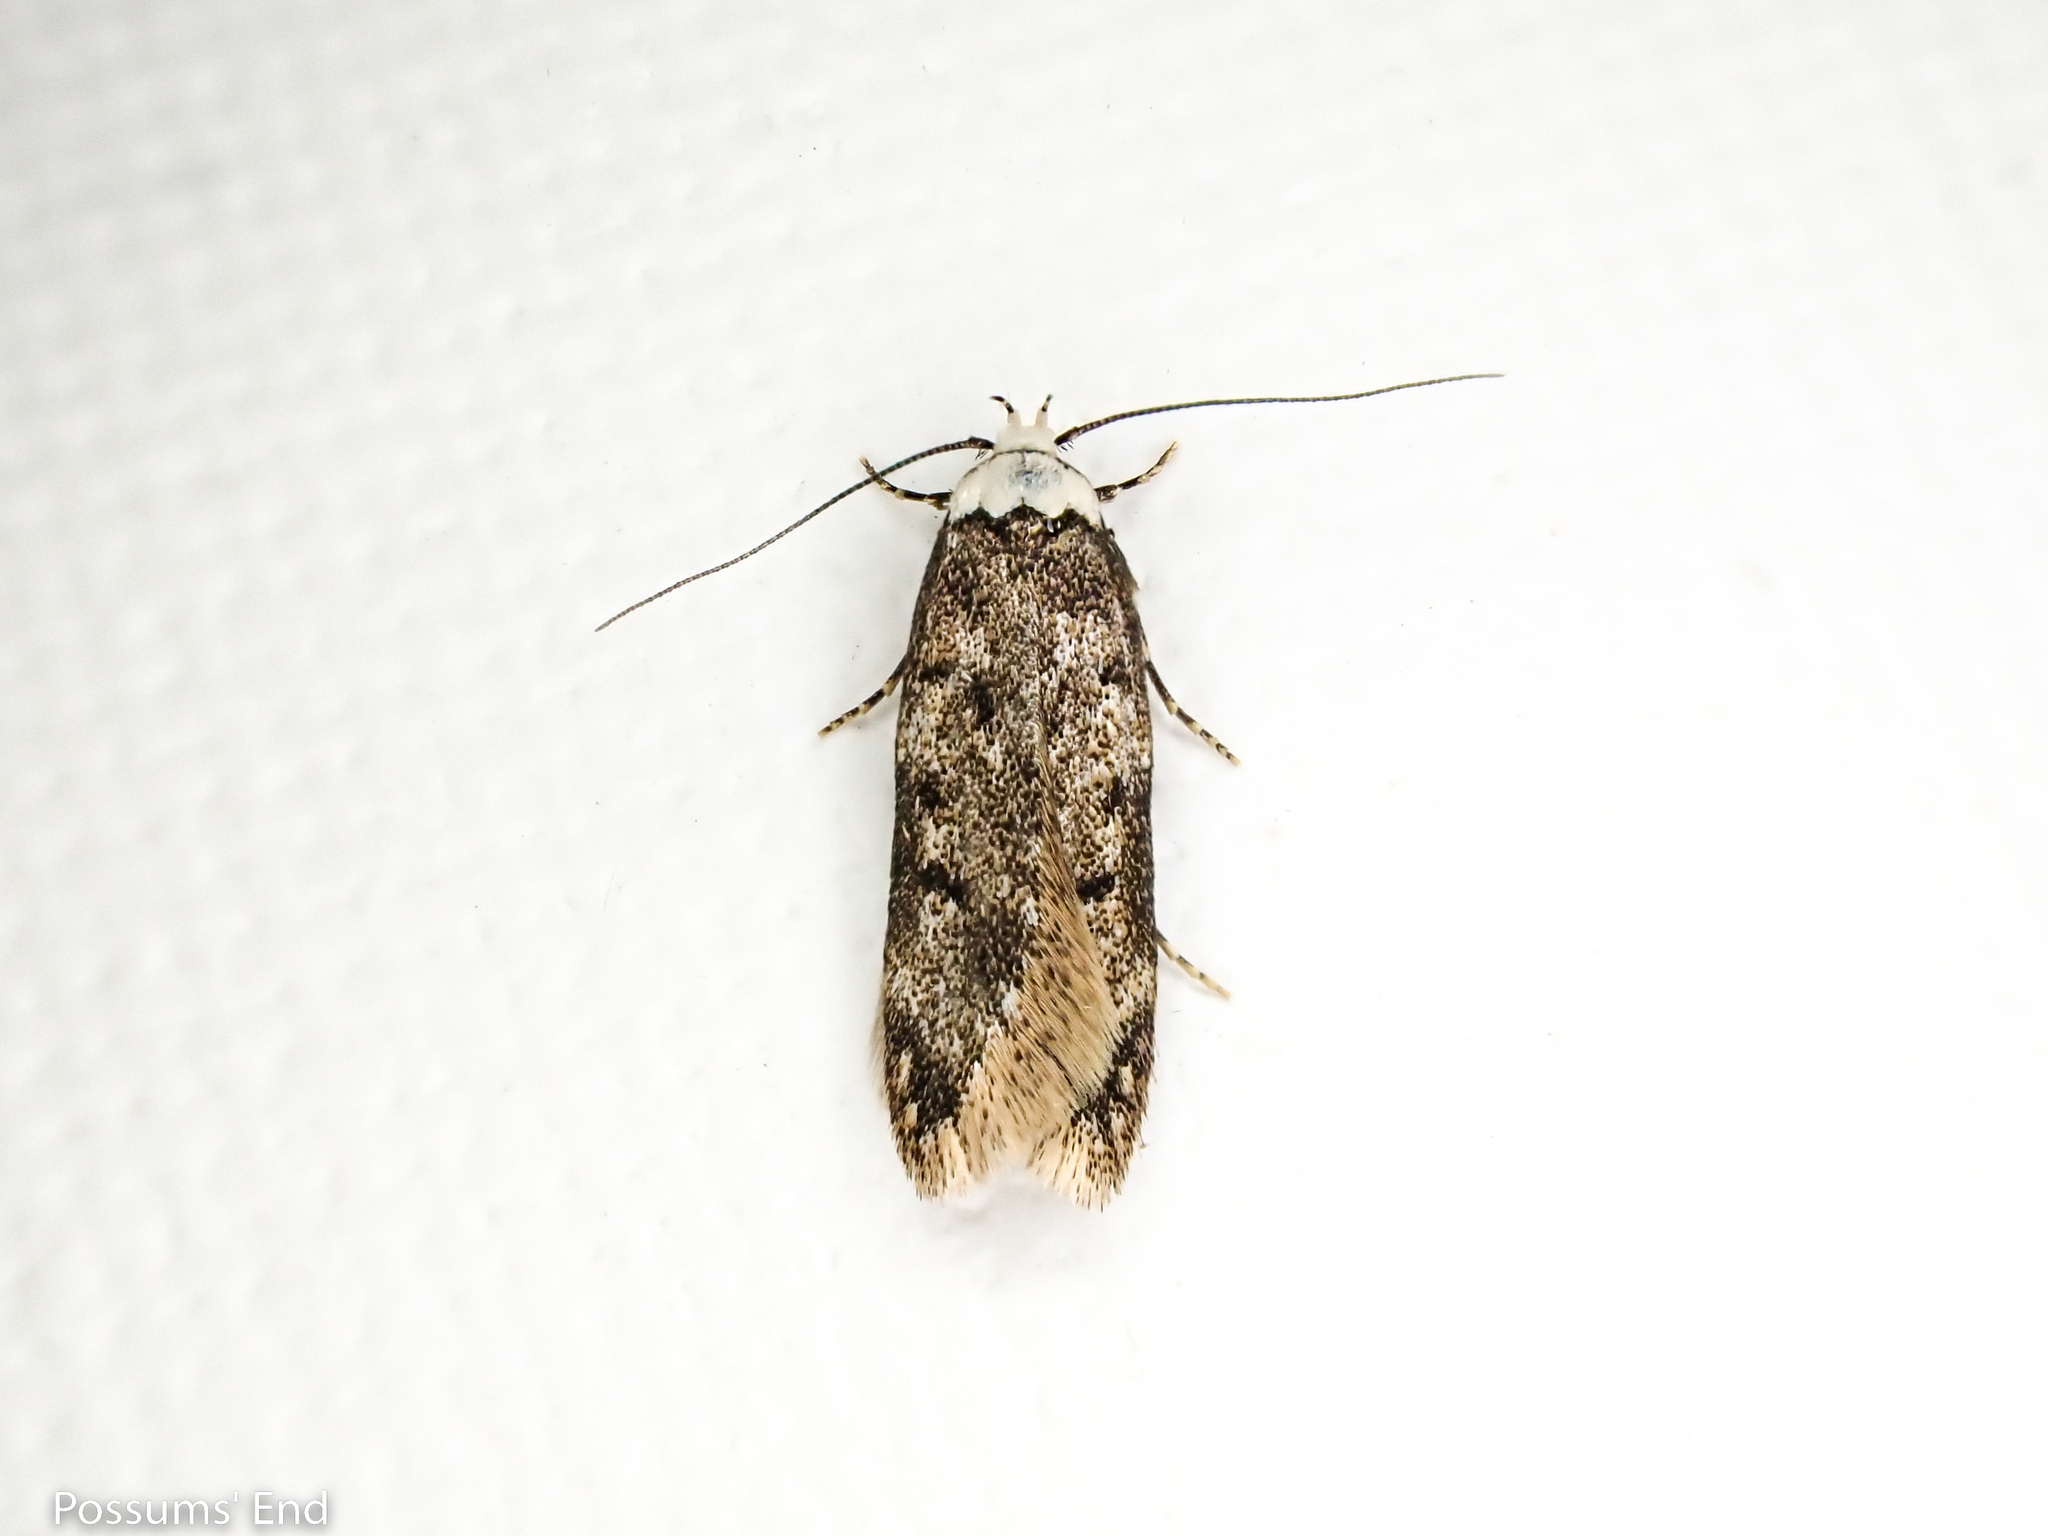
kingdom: Animalia
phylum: Arthropoda
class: Insecta
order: Lepidoptera
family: Oecophoridae
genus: Endrosis
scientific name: Endrosis sarcitrella
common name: White-shouldered house moth
